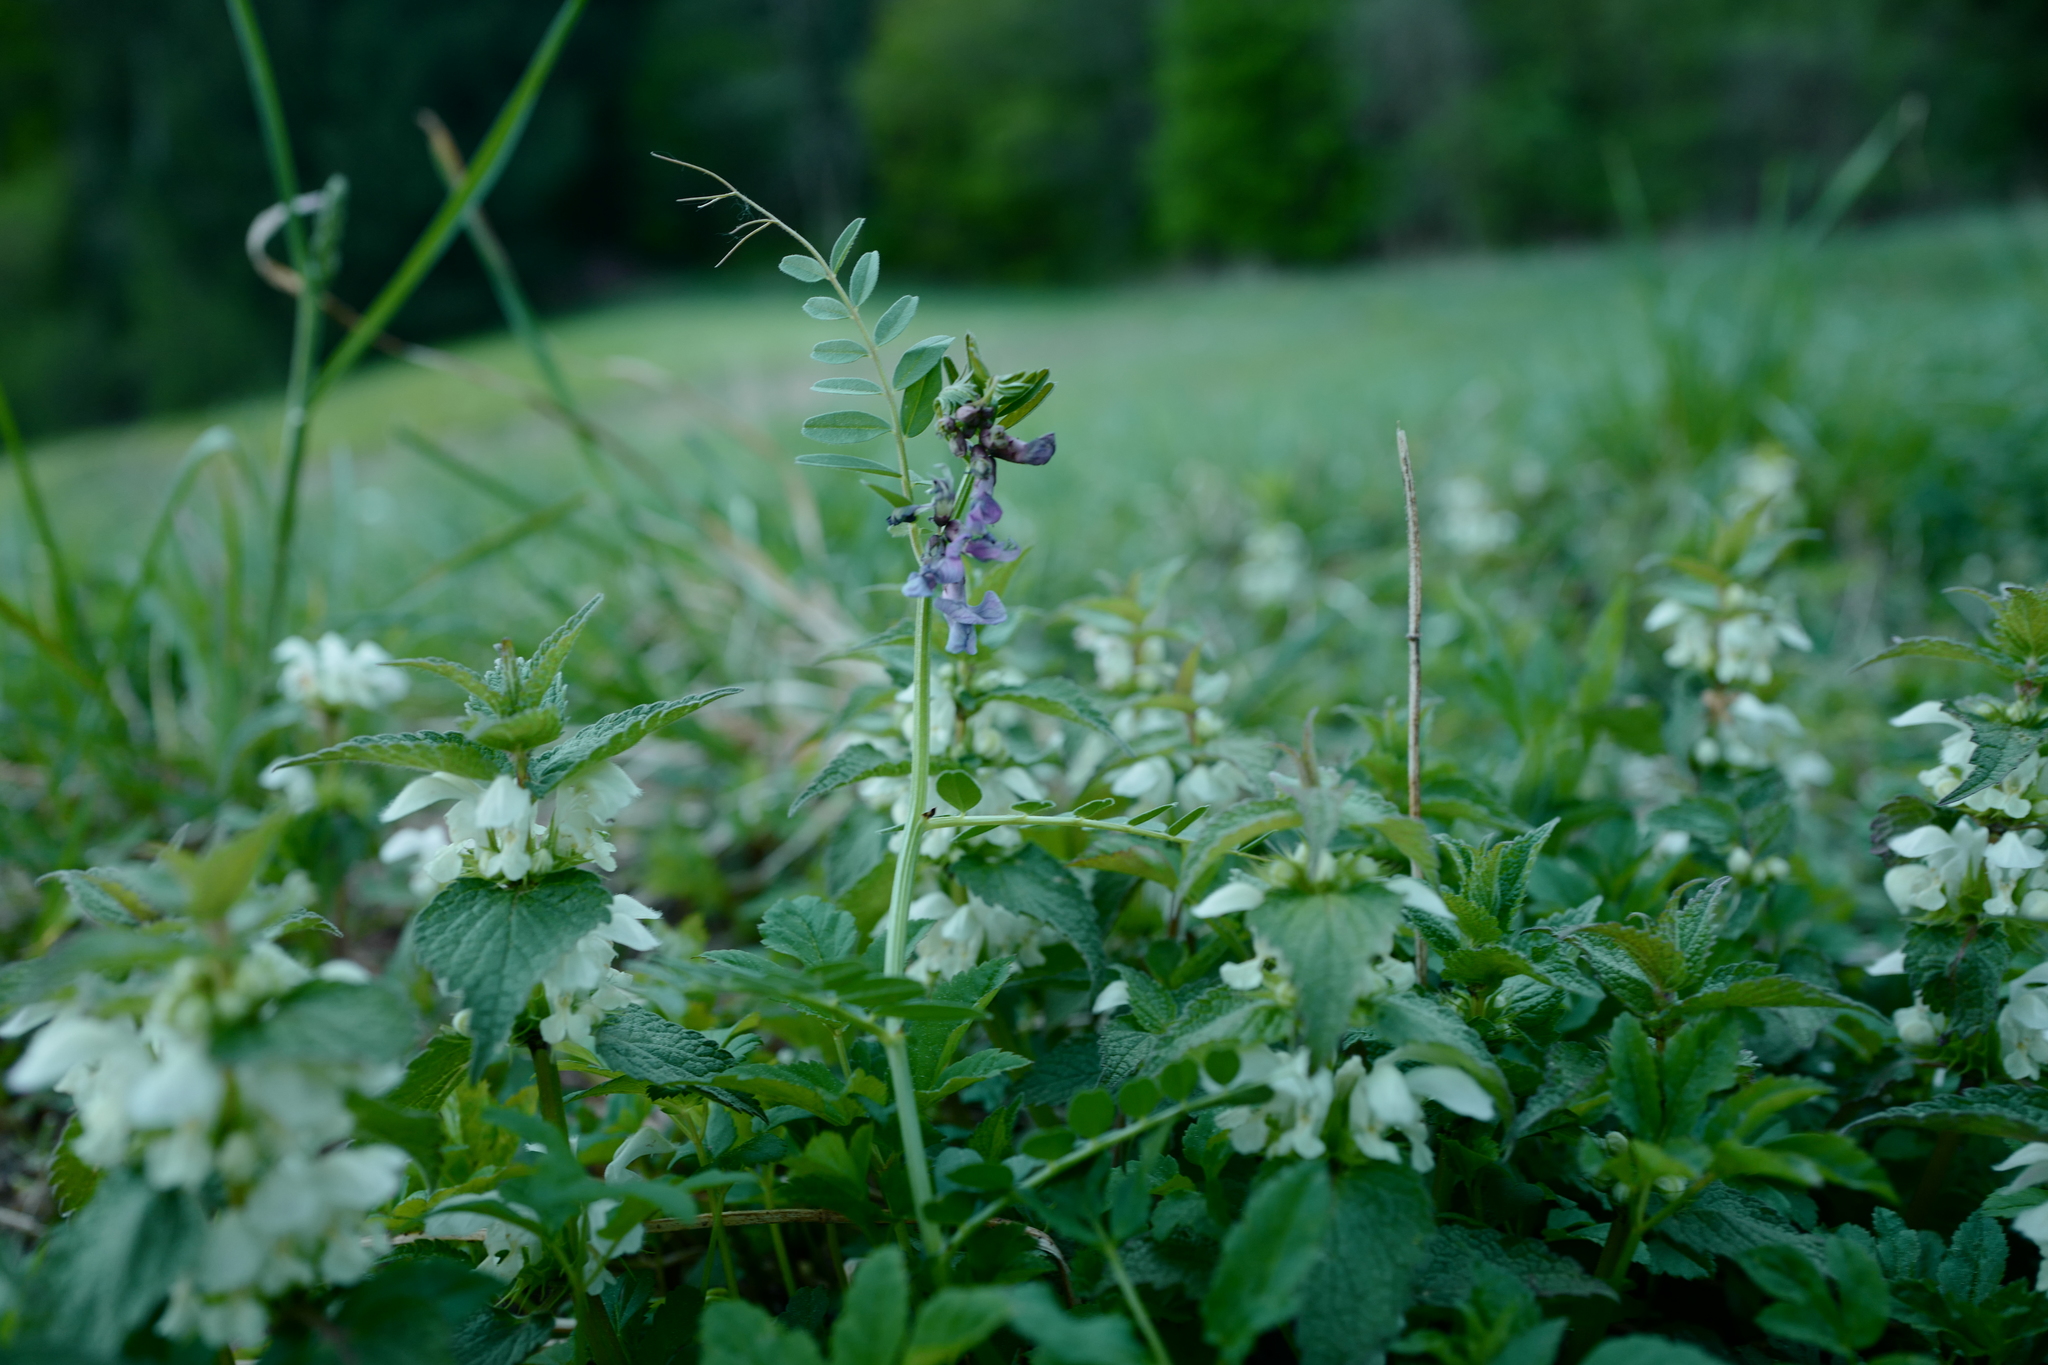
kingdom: Plantae
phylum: Tracheophyta
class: Magnoliopsida
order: Fabales
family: Fabaceae
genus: Vicia
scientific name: Vicia sepium
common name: Bush vetch
